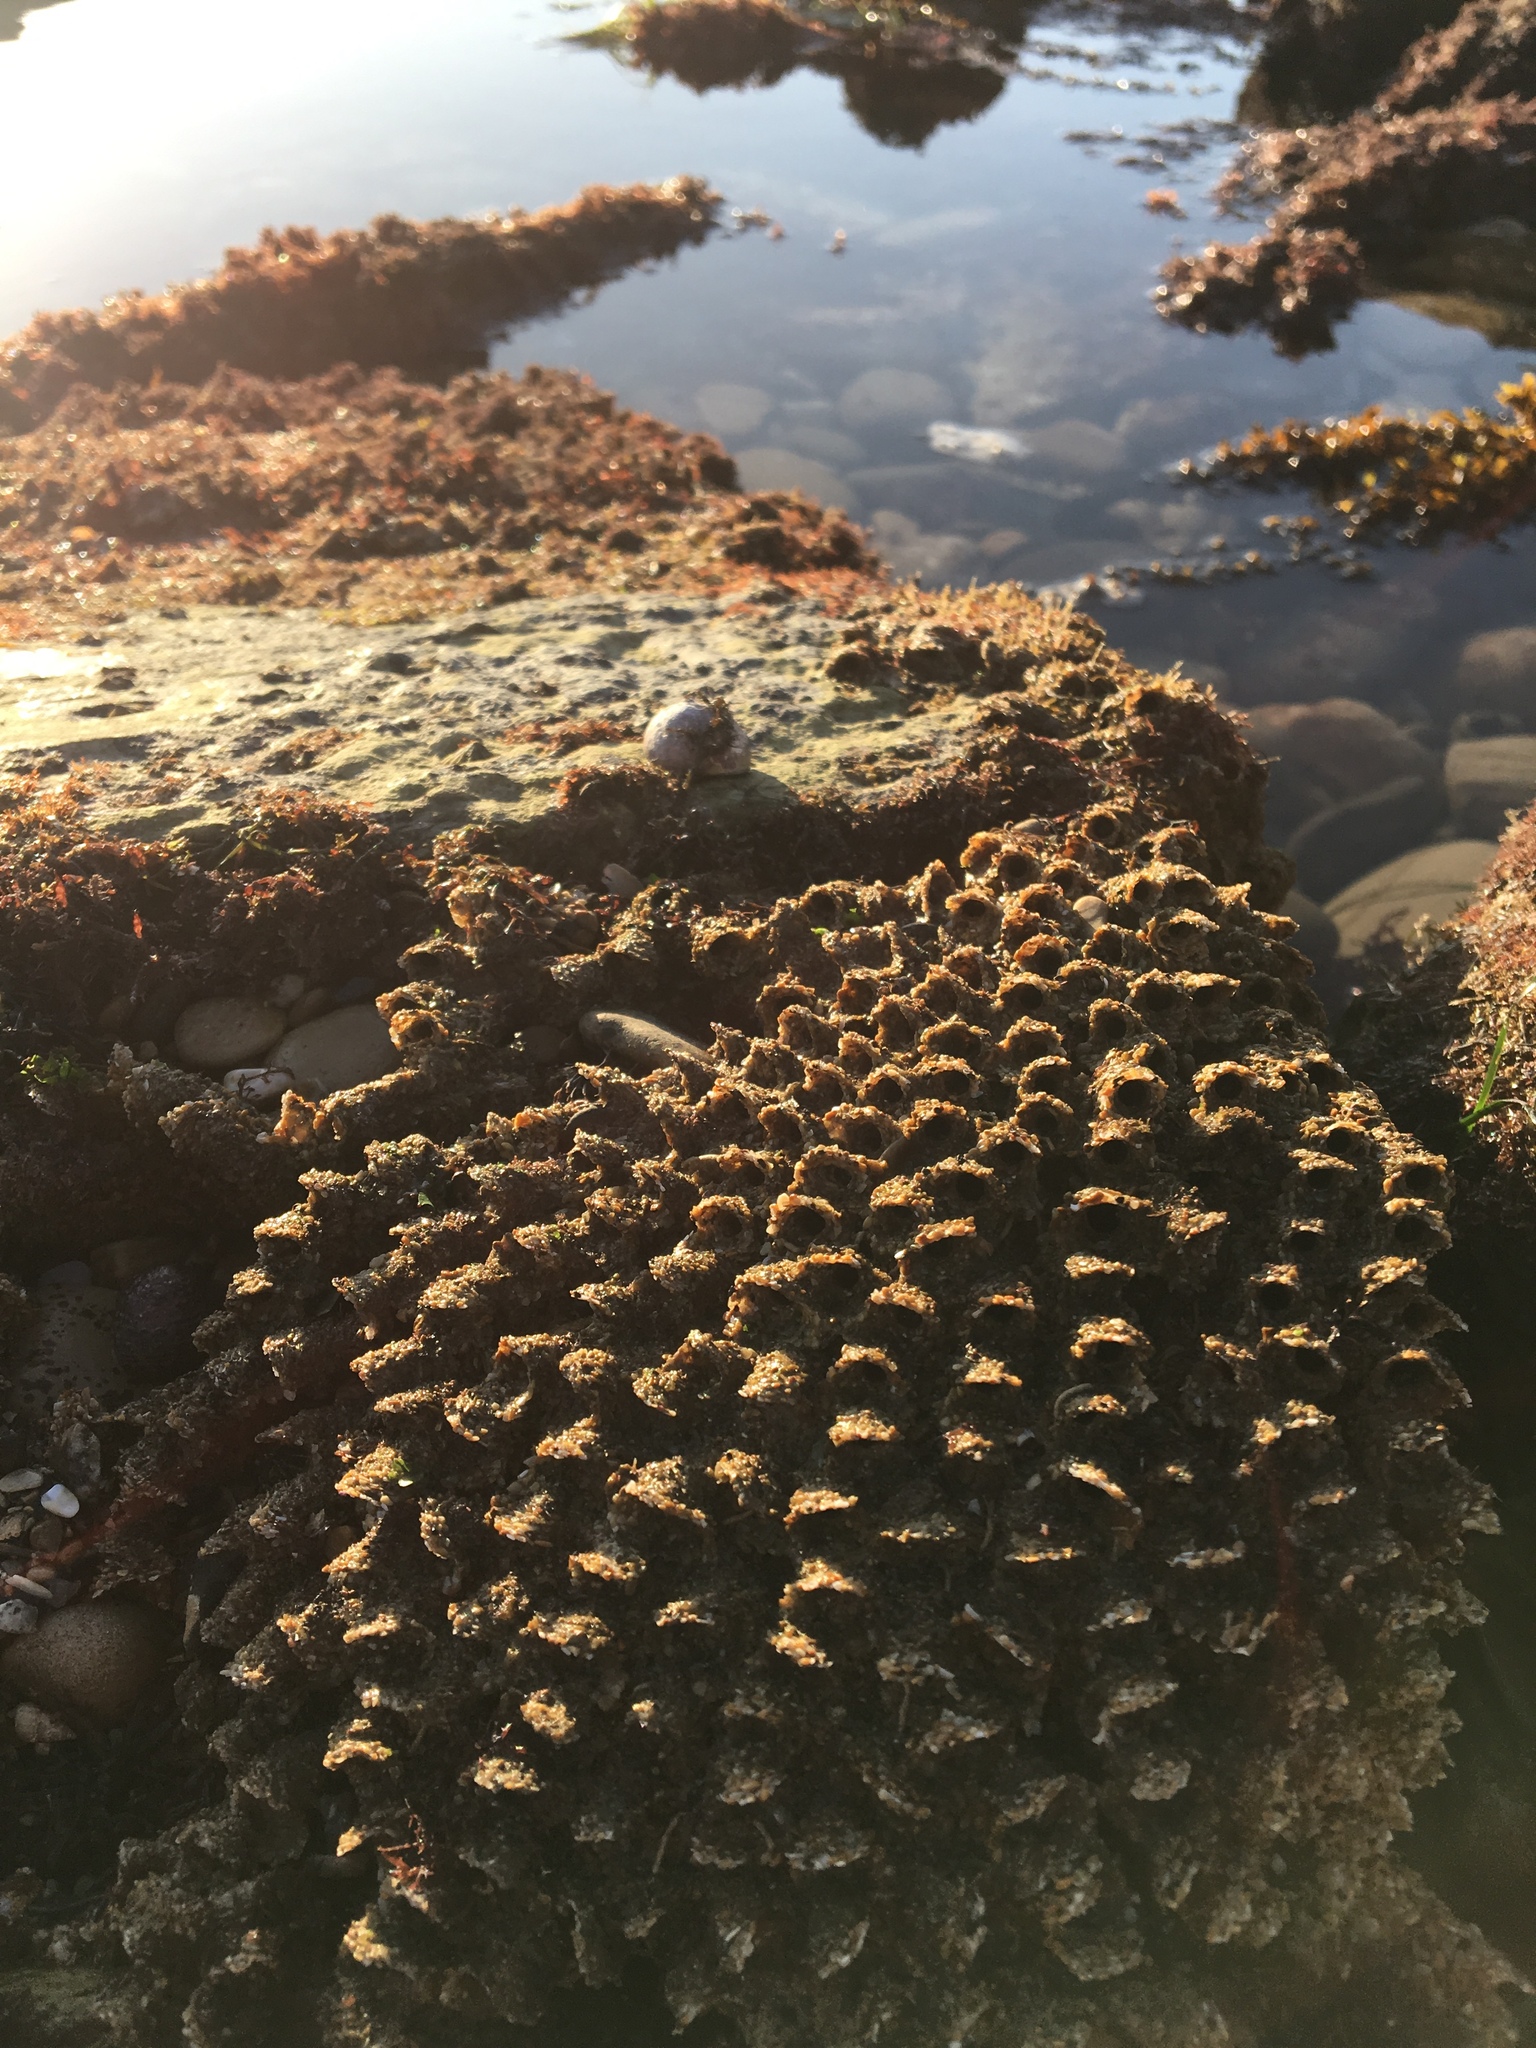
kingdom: Animalia
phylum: Annelida
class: Polychaeta
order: Sabellida
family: Sabellariidae
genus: Phragmatopoma
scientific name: Phragmatopoma californica
